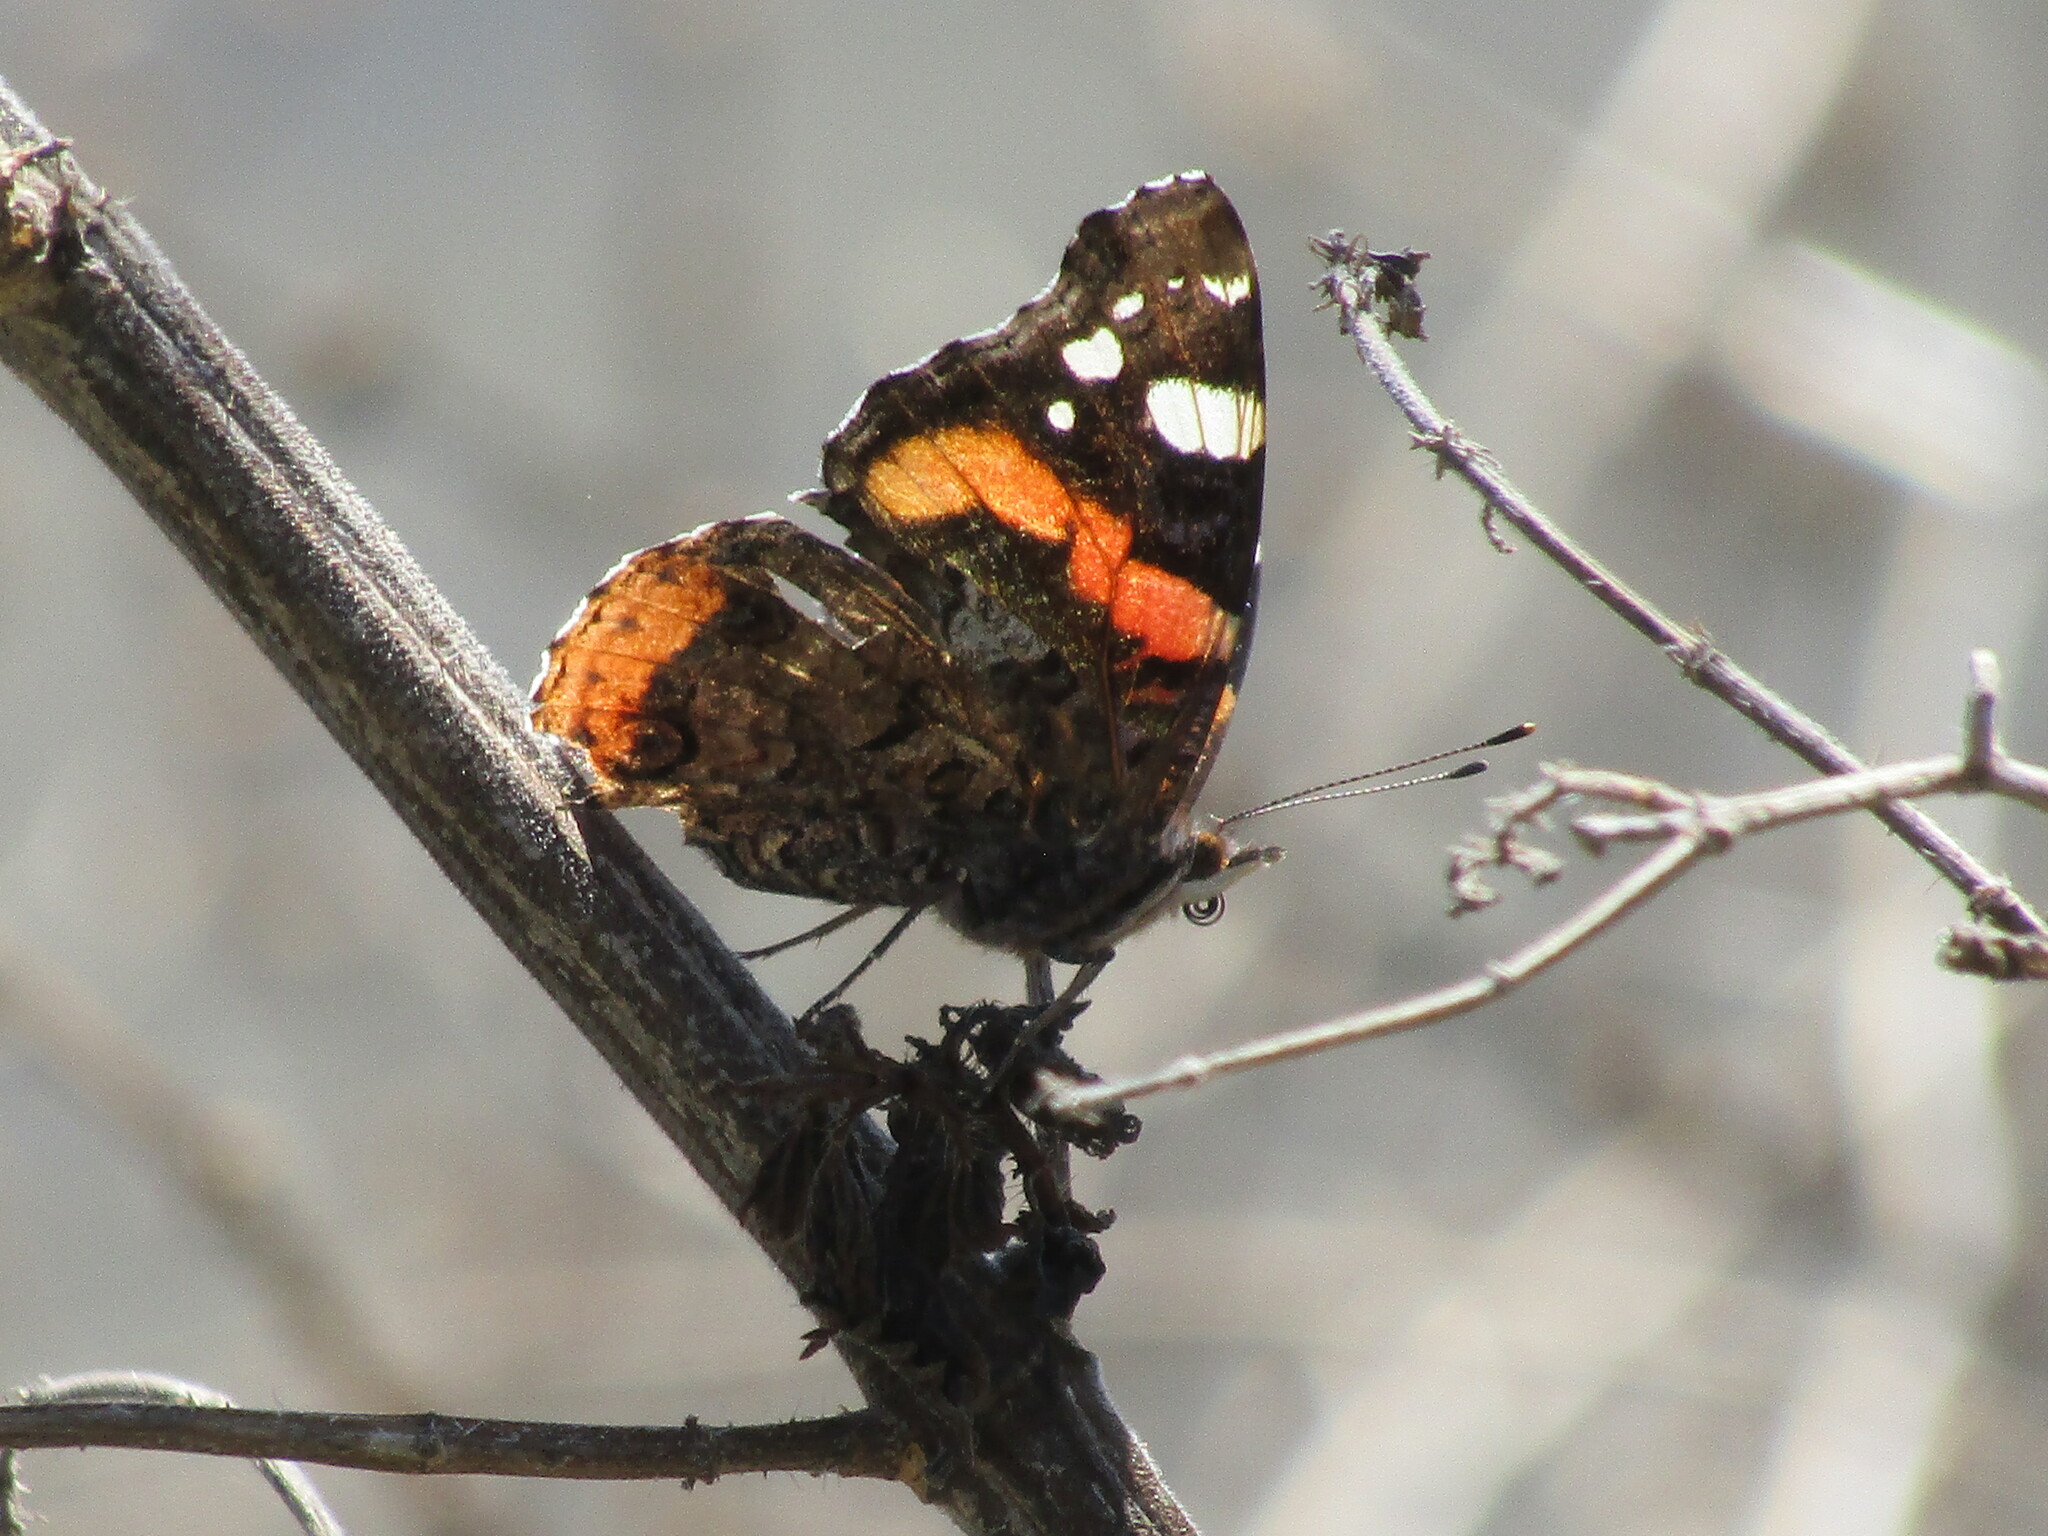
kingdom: Animalia
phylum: Arthropoda
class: Insecta
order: Lepidoptera
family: Nymphalidae
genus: Vanessa
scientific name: Vanessa atalanta
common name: Red admiral
